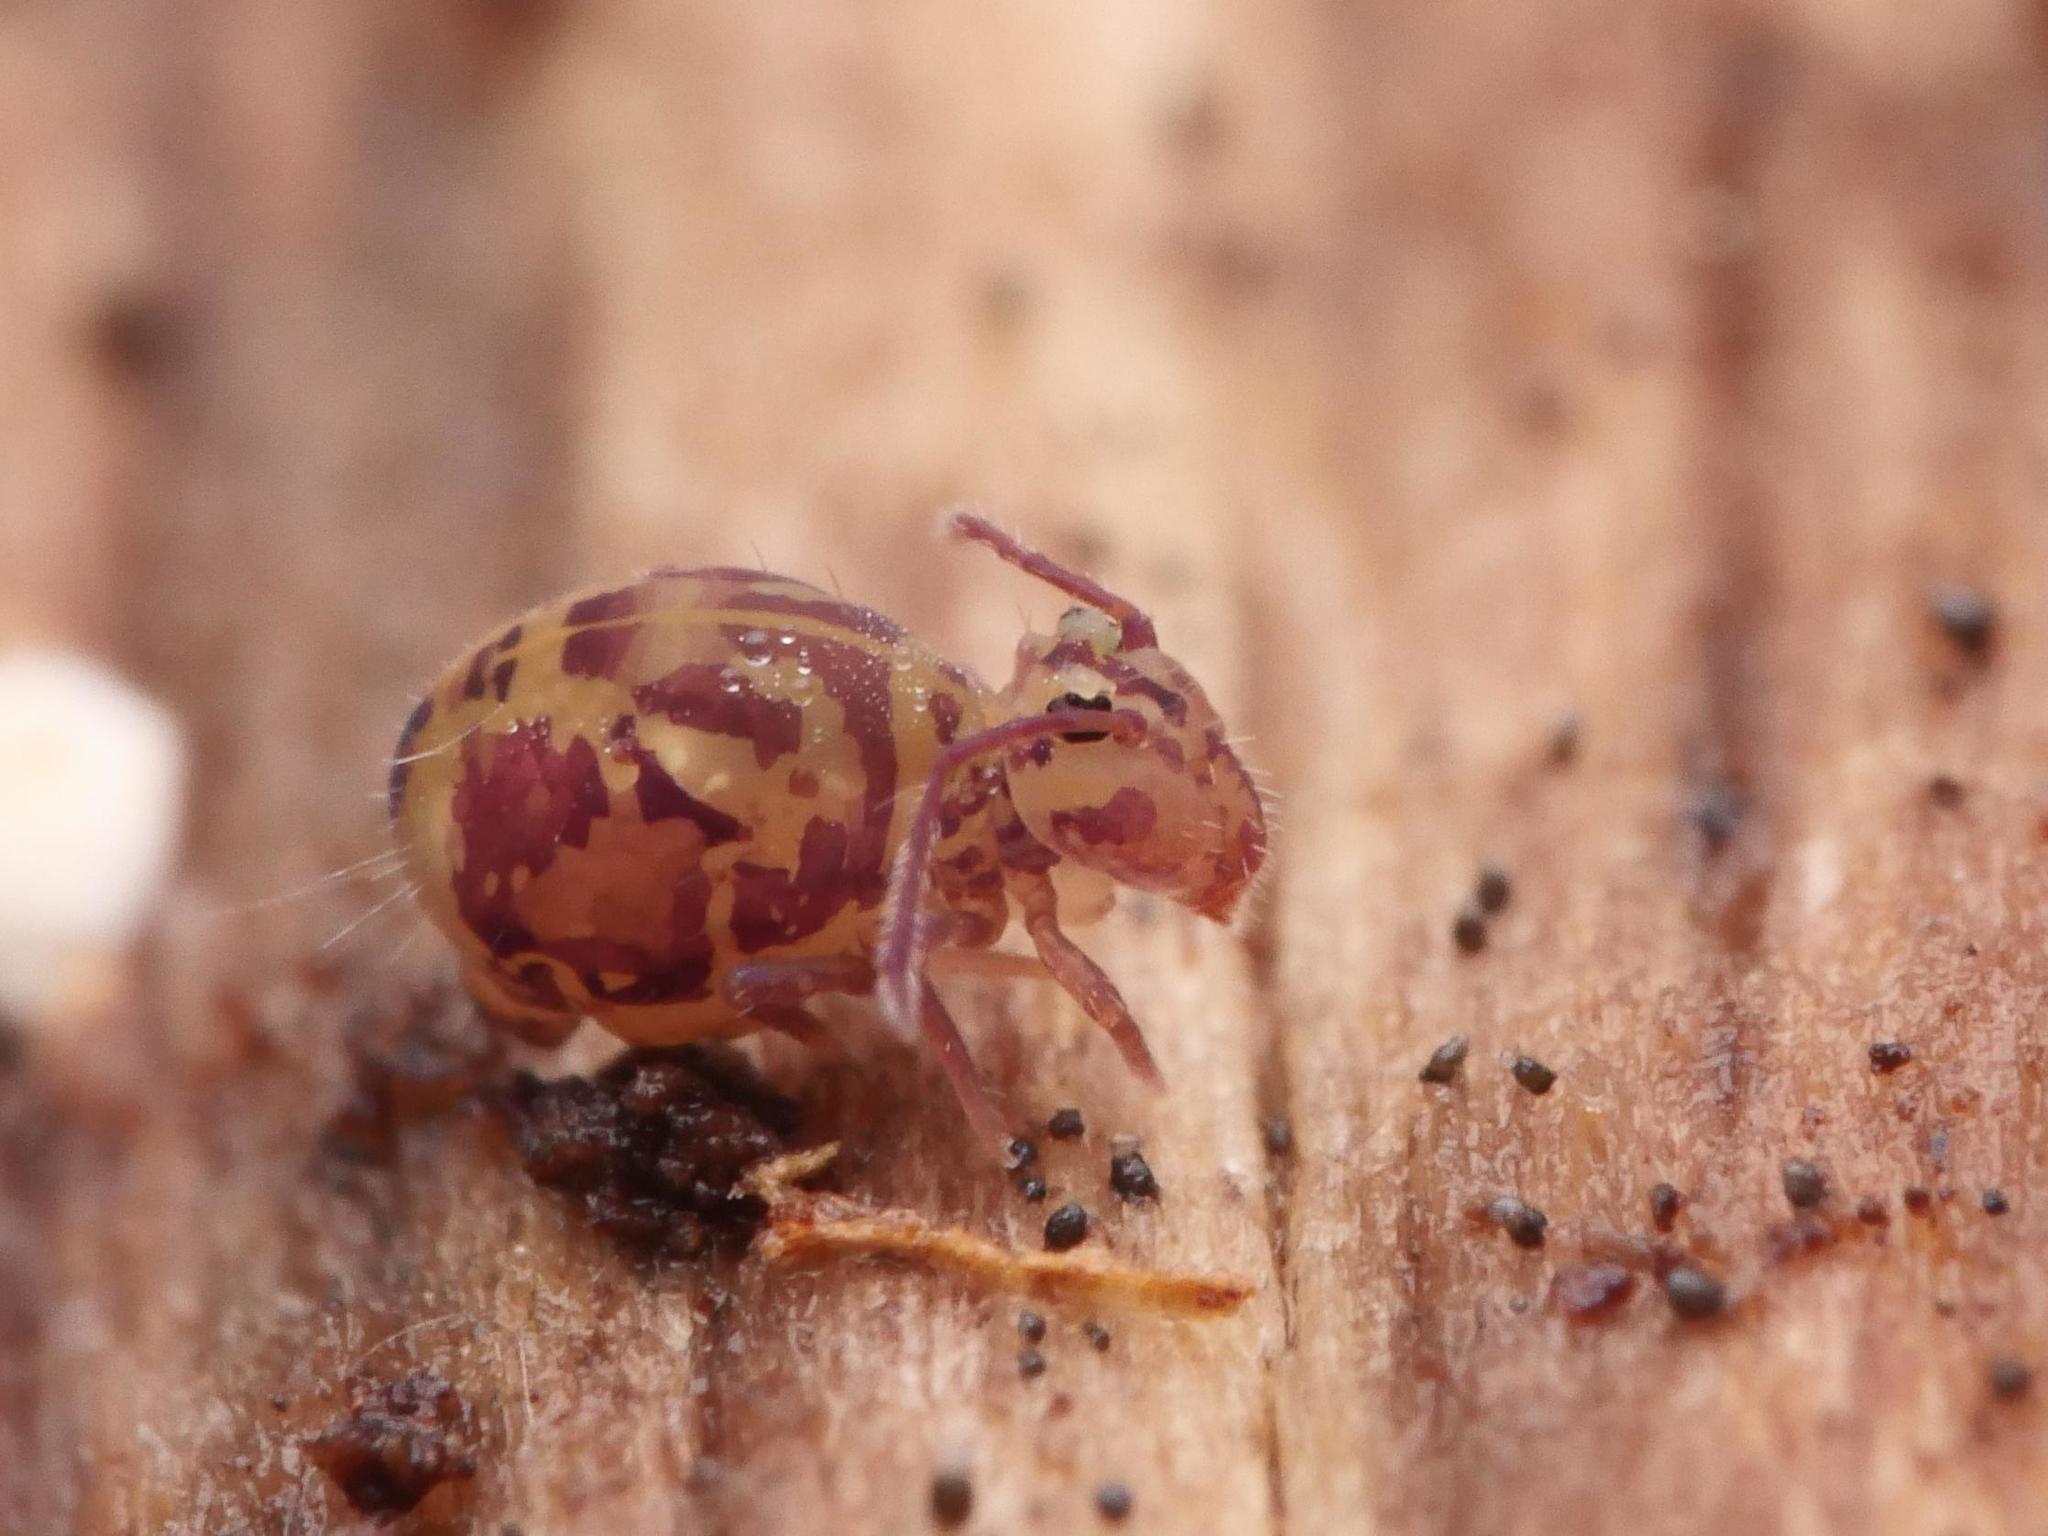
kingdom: Animalia
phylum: Arthropoda
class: Collembola
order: Symphypleona
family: Dicyrtomidae
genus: Dicyrtomina
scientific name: Dicyrtomina ornata
